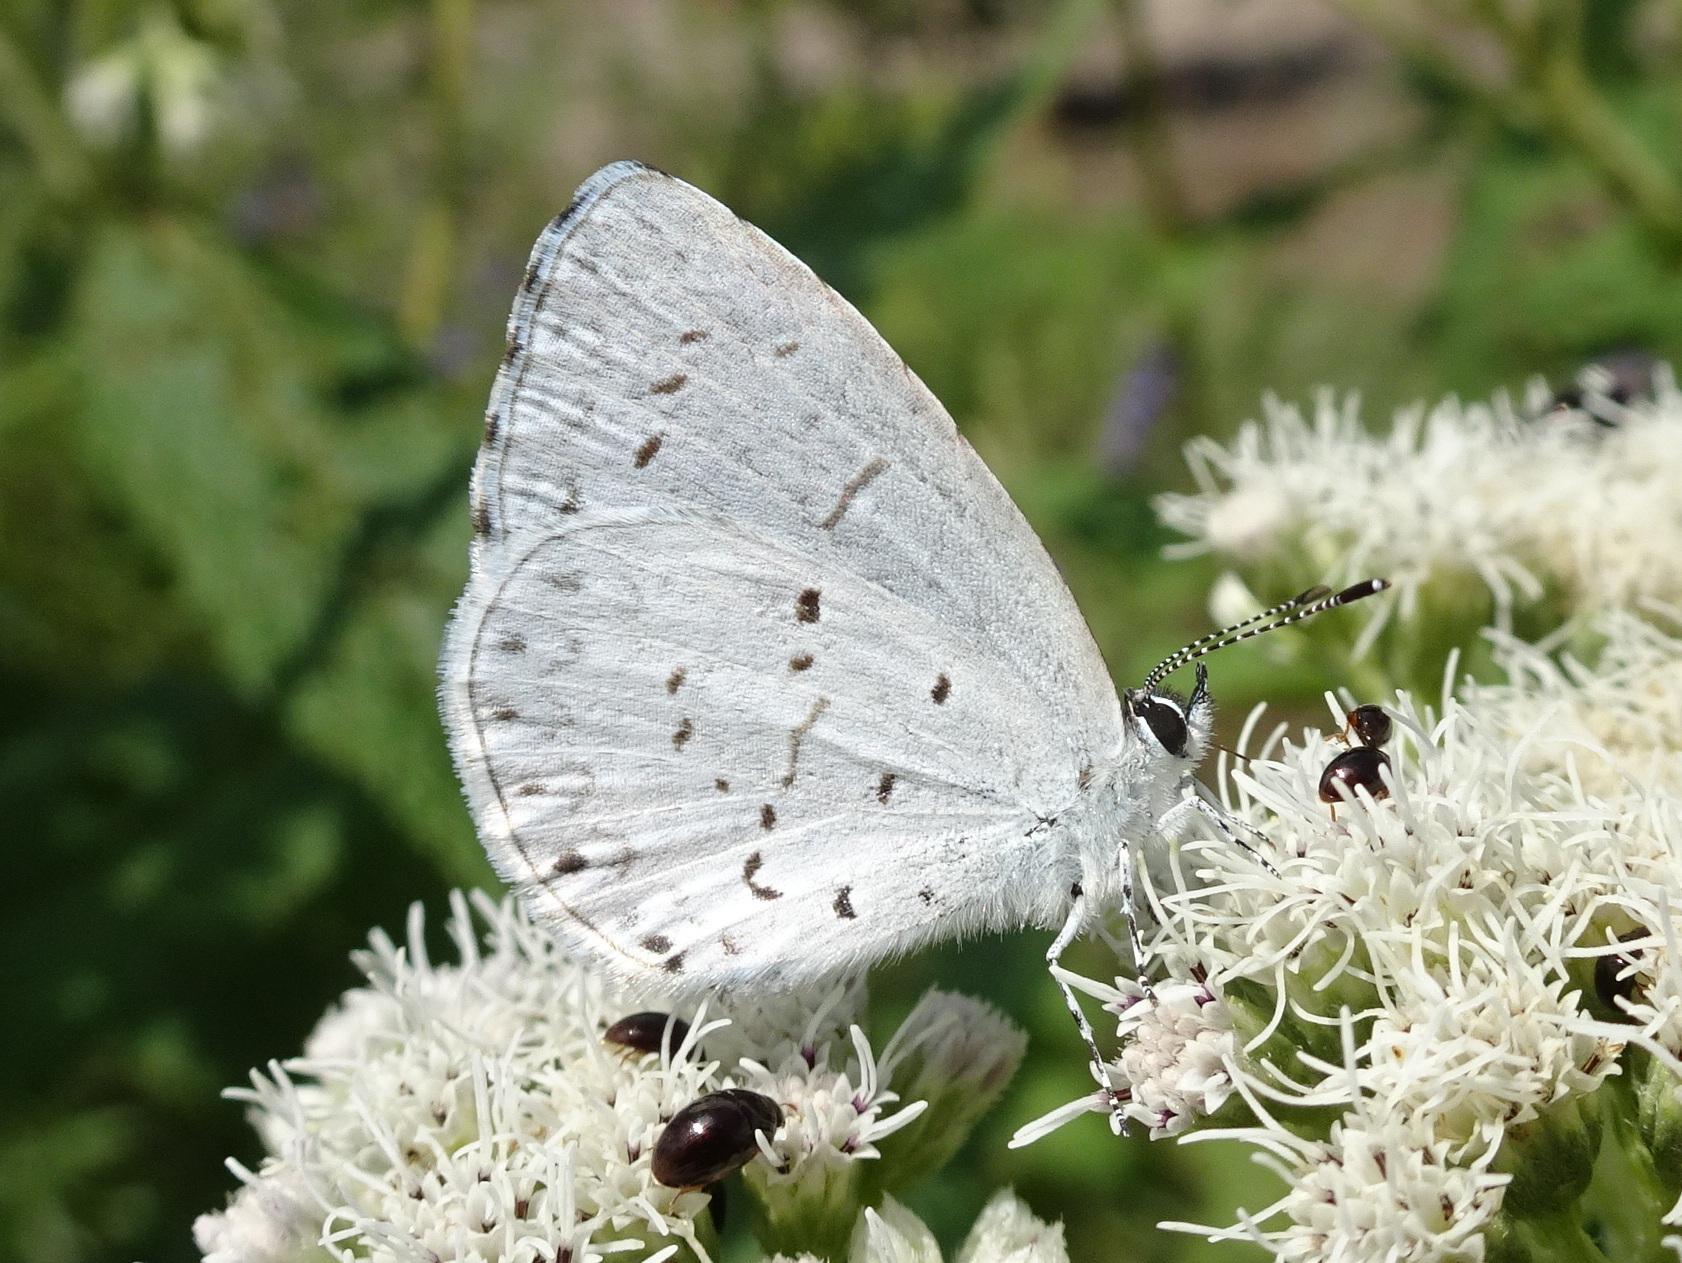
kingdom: Animalia
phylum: Arthropoda
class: Insecta
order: Lepidoptera
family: Lycaenidae
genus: Cyaniris
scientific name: Cyaniris neglecta
